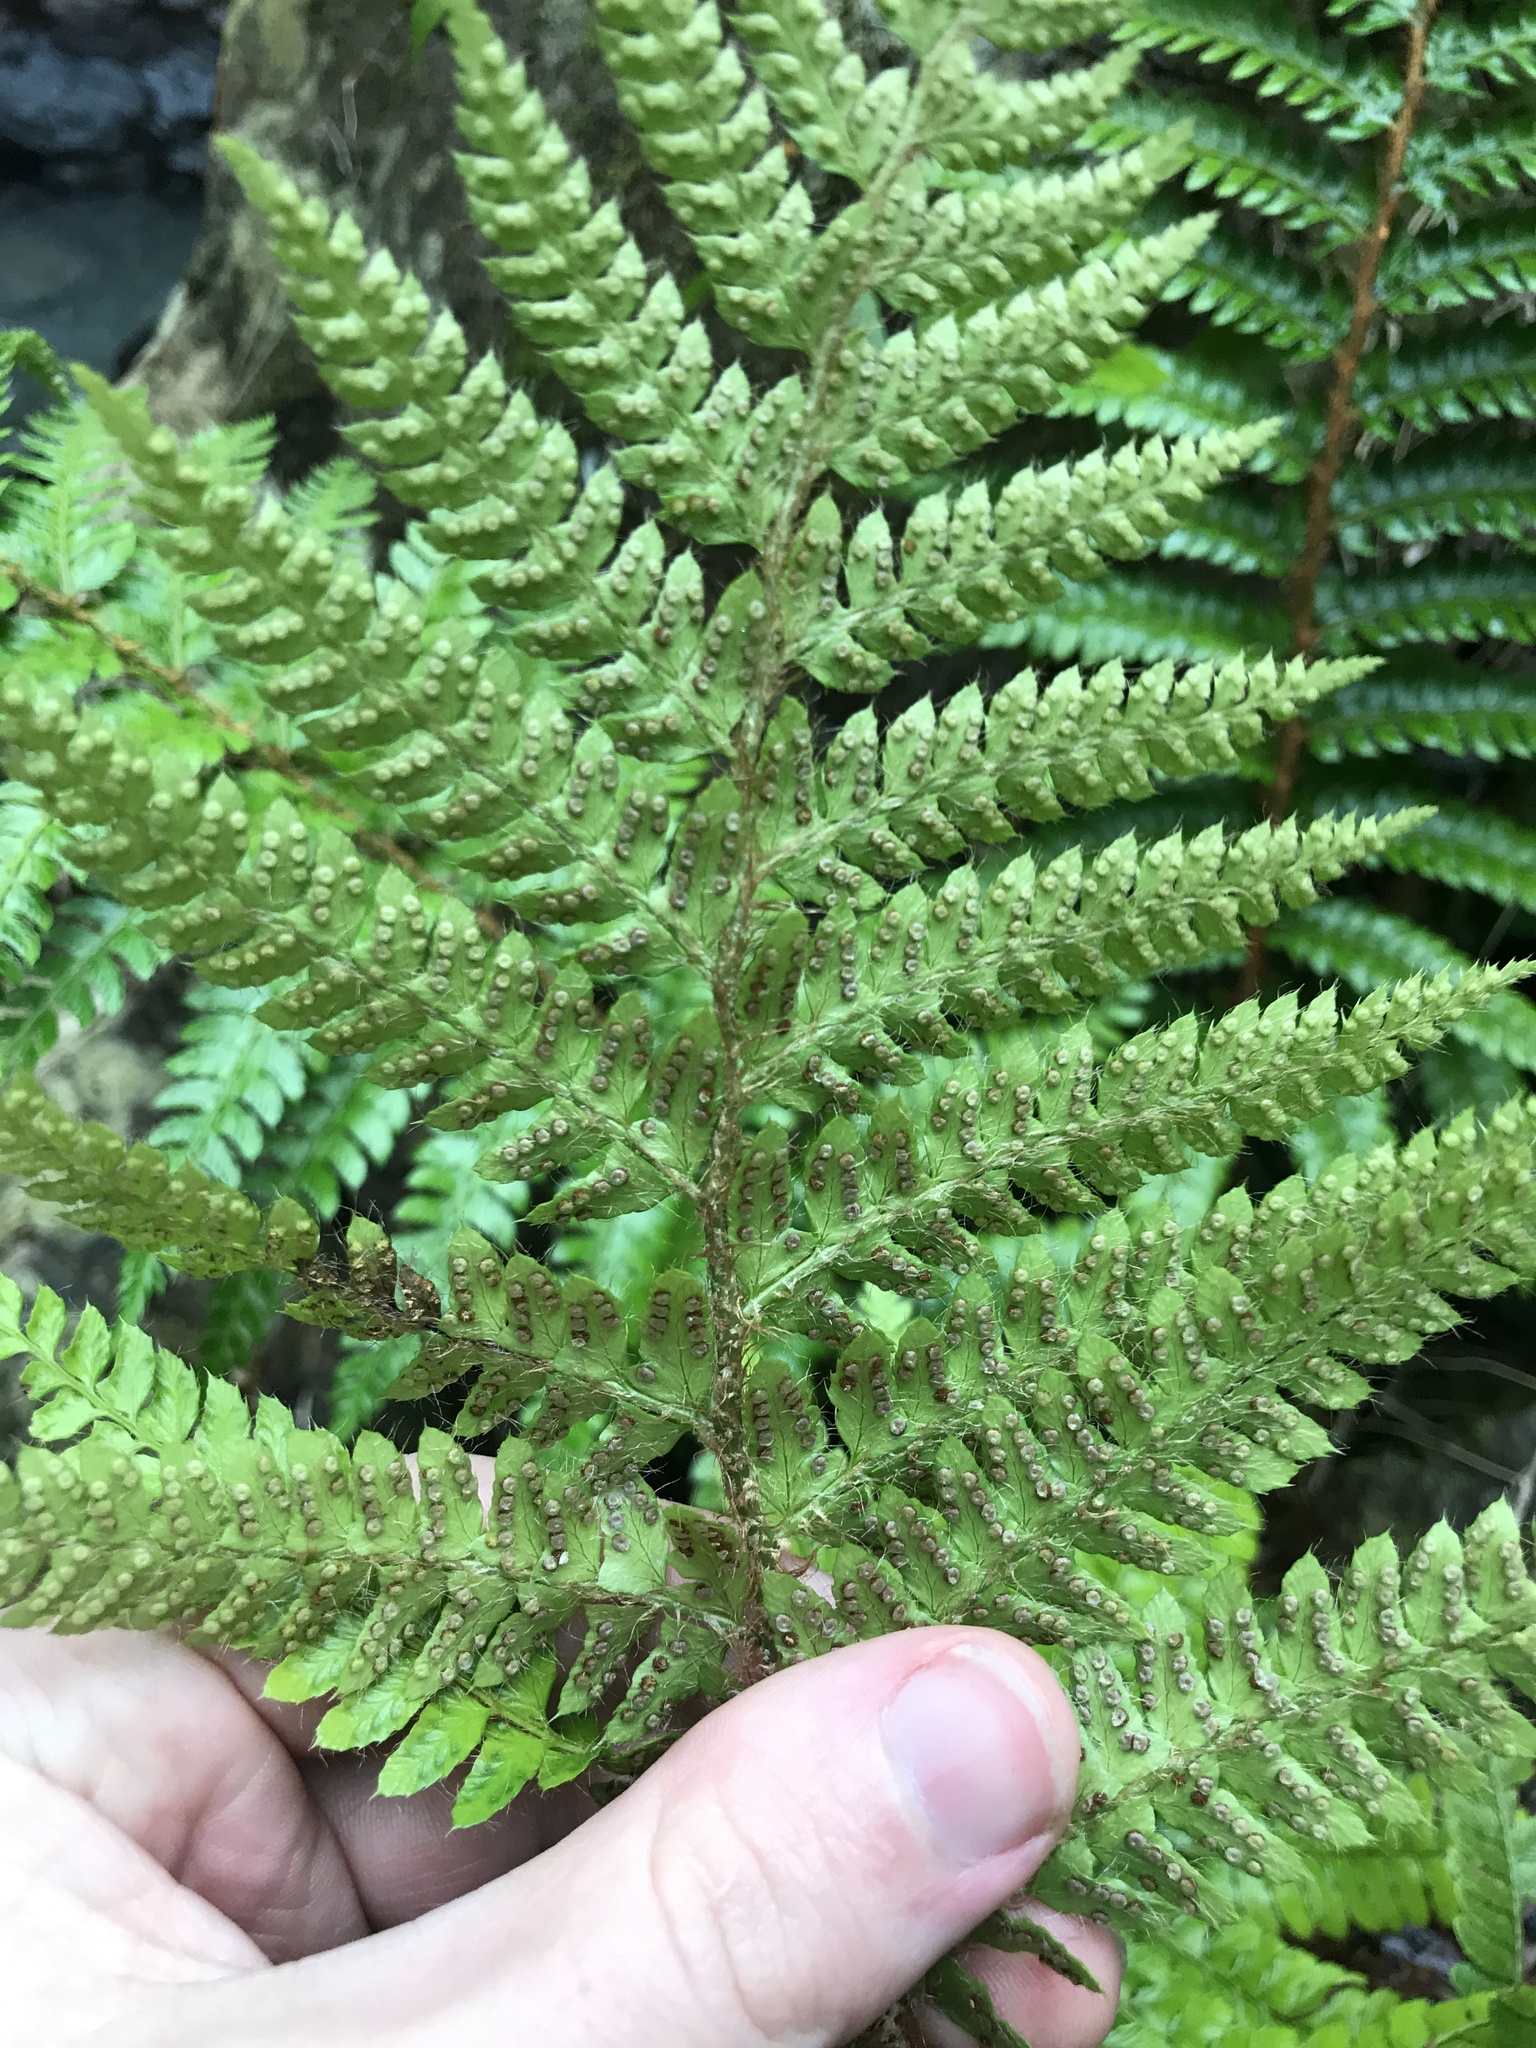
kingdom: Plantae
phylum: Tracheophyta
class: Polypodiopsida
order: Polypodiales
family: Dryopteridaceae
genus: Polystichum
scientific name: Polystichum luctuosum
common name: Korean rockfern
